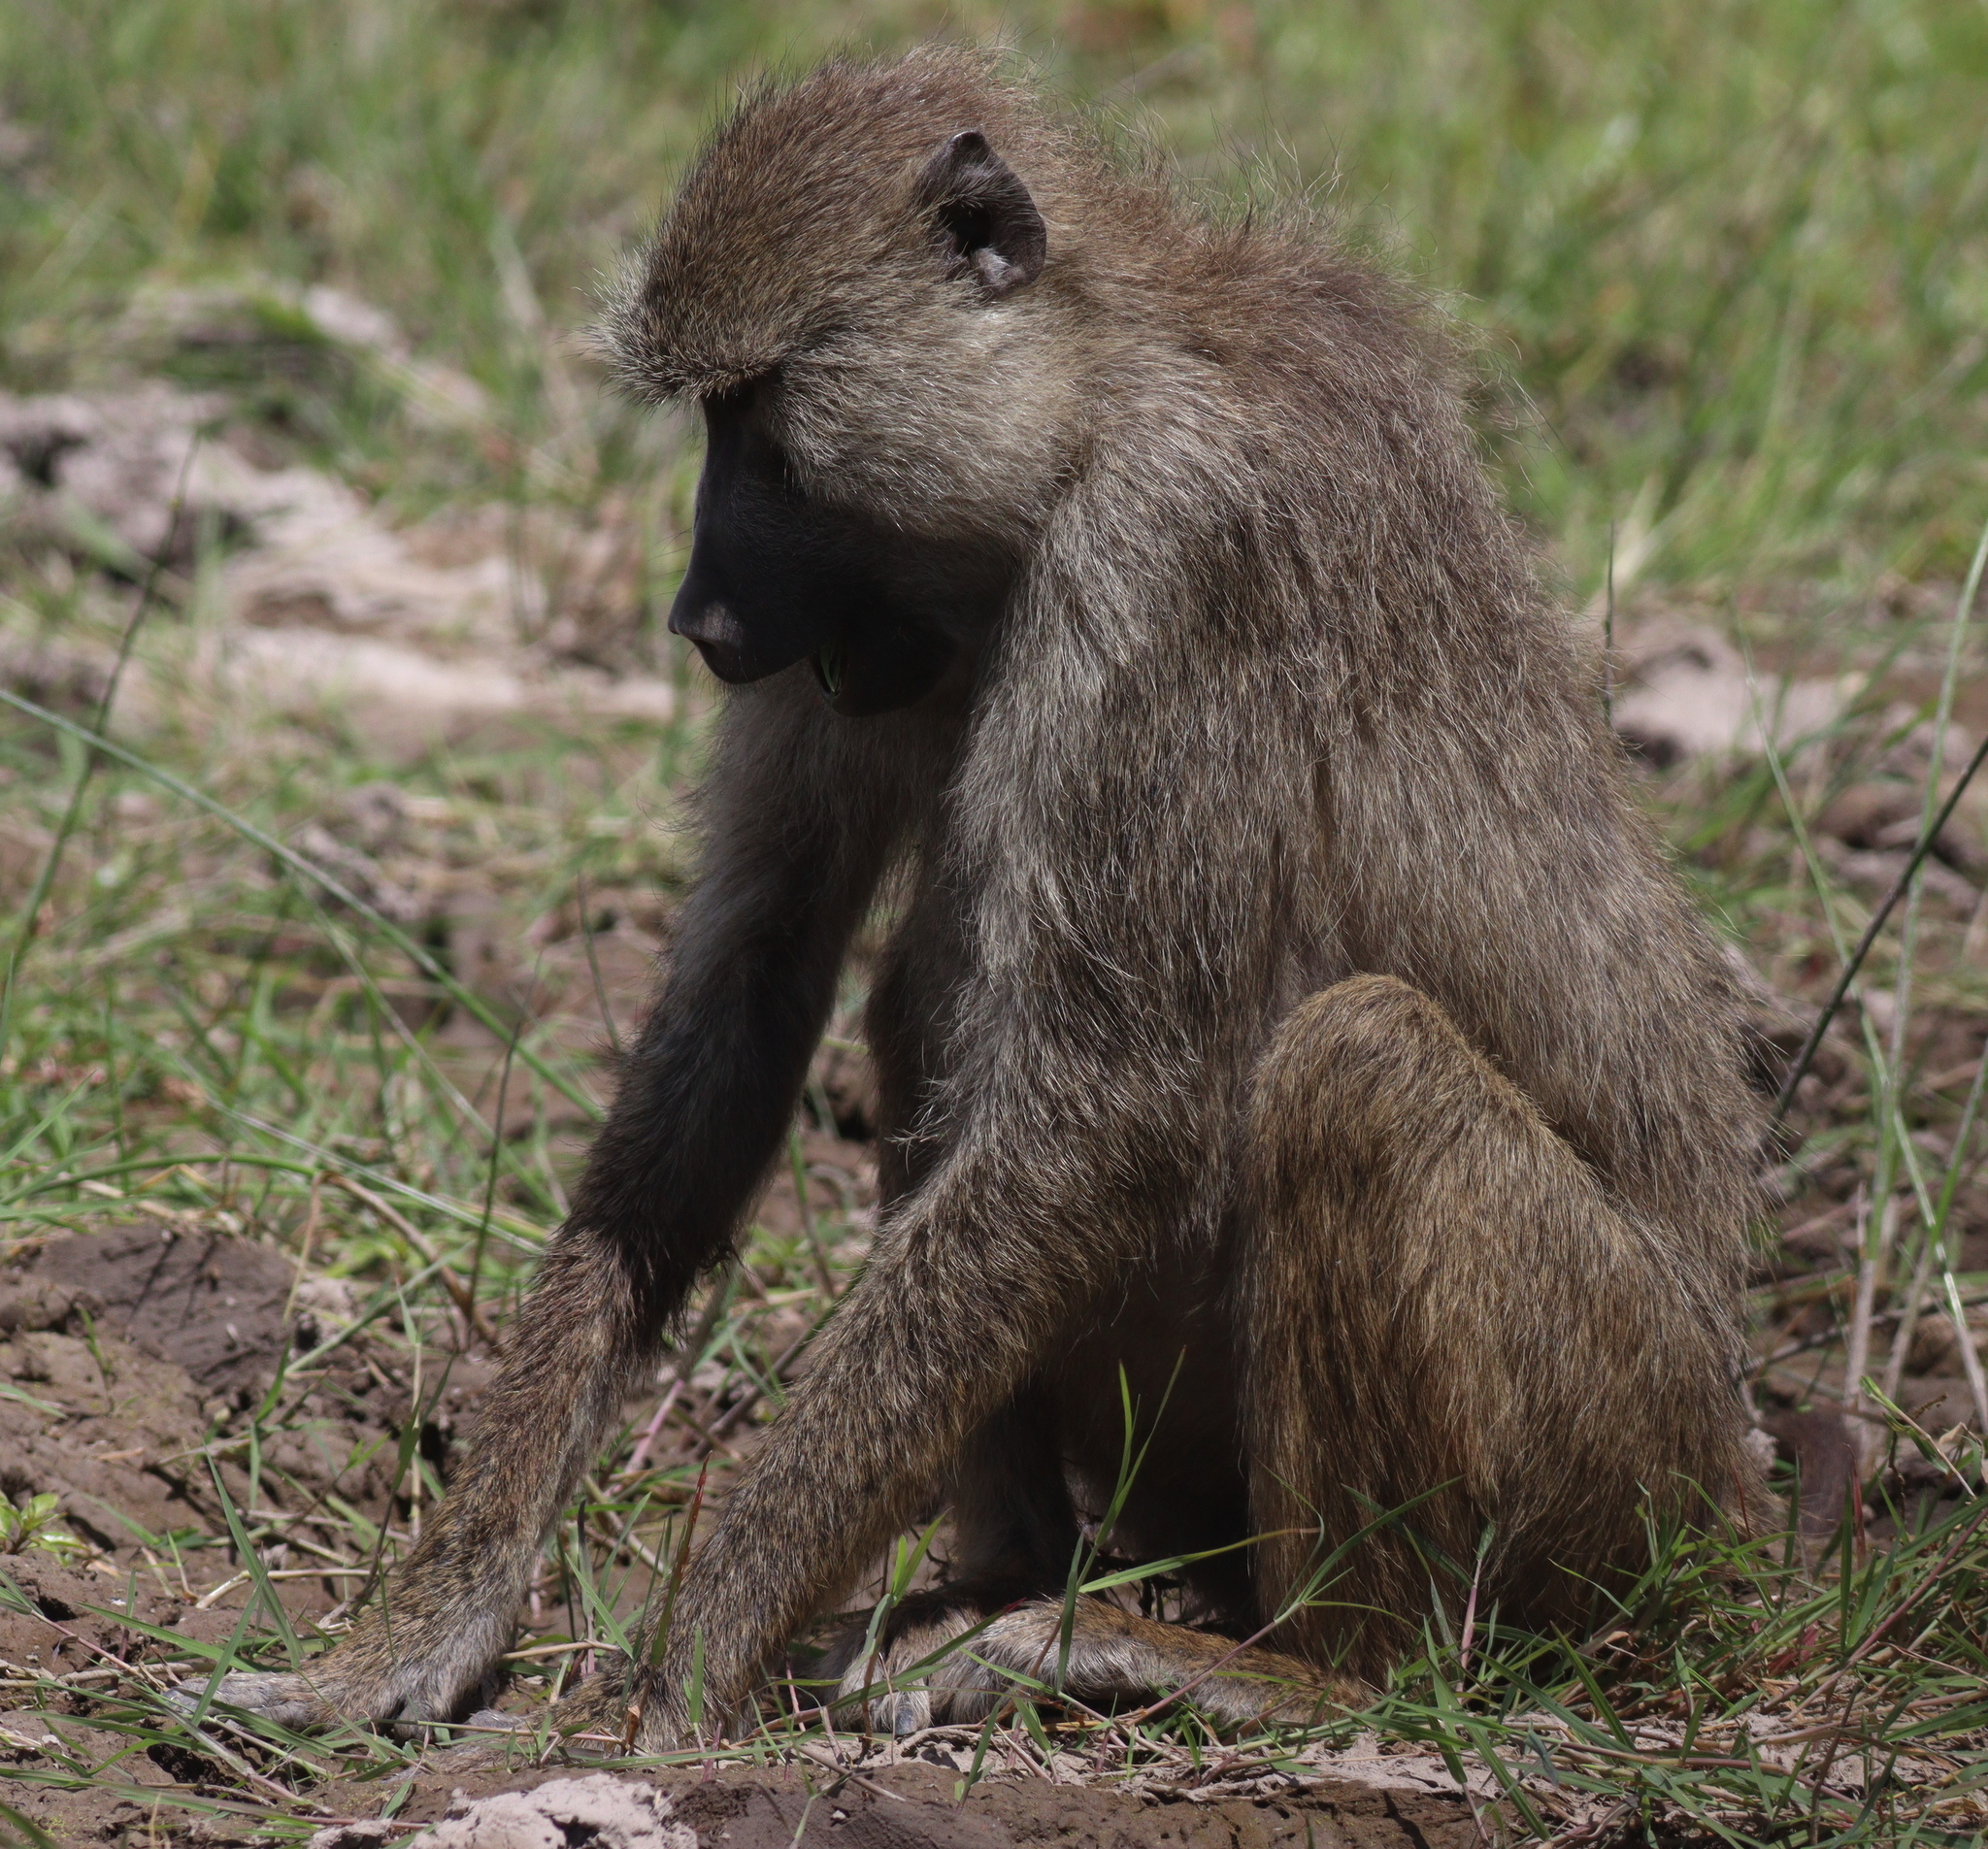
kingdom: Animalia
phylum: Chordata
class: Mammalia
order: Primates
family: Cercopithecidae
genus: Papio
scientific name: Papio cynocephalus
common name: Yellow baboon
